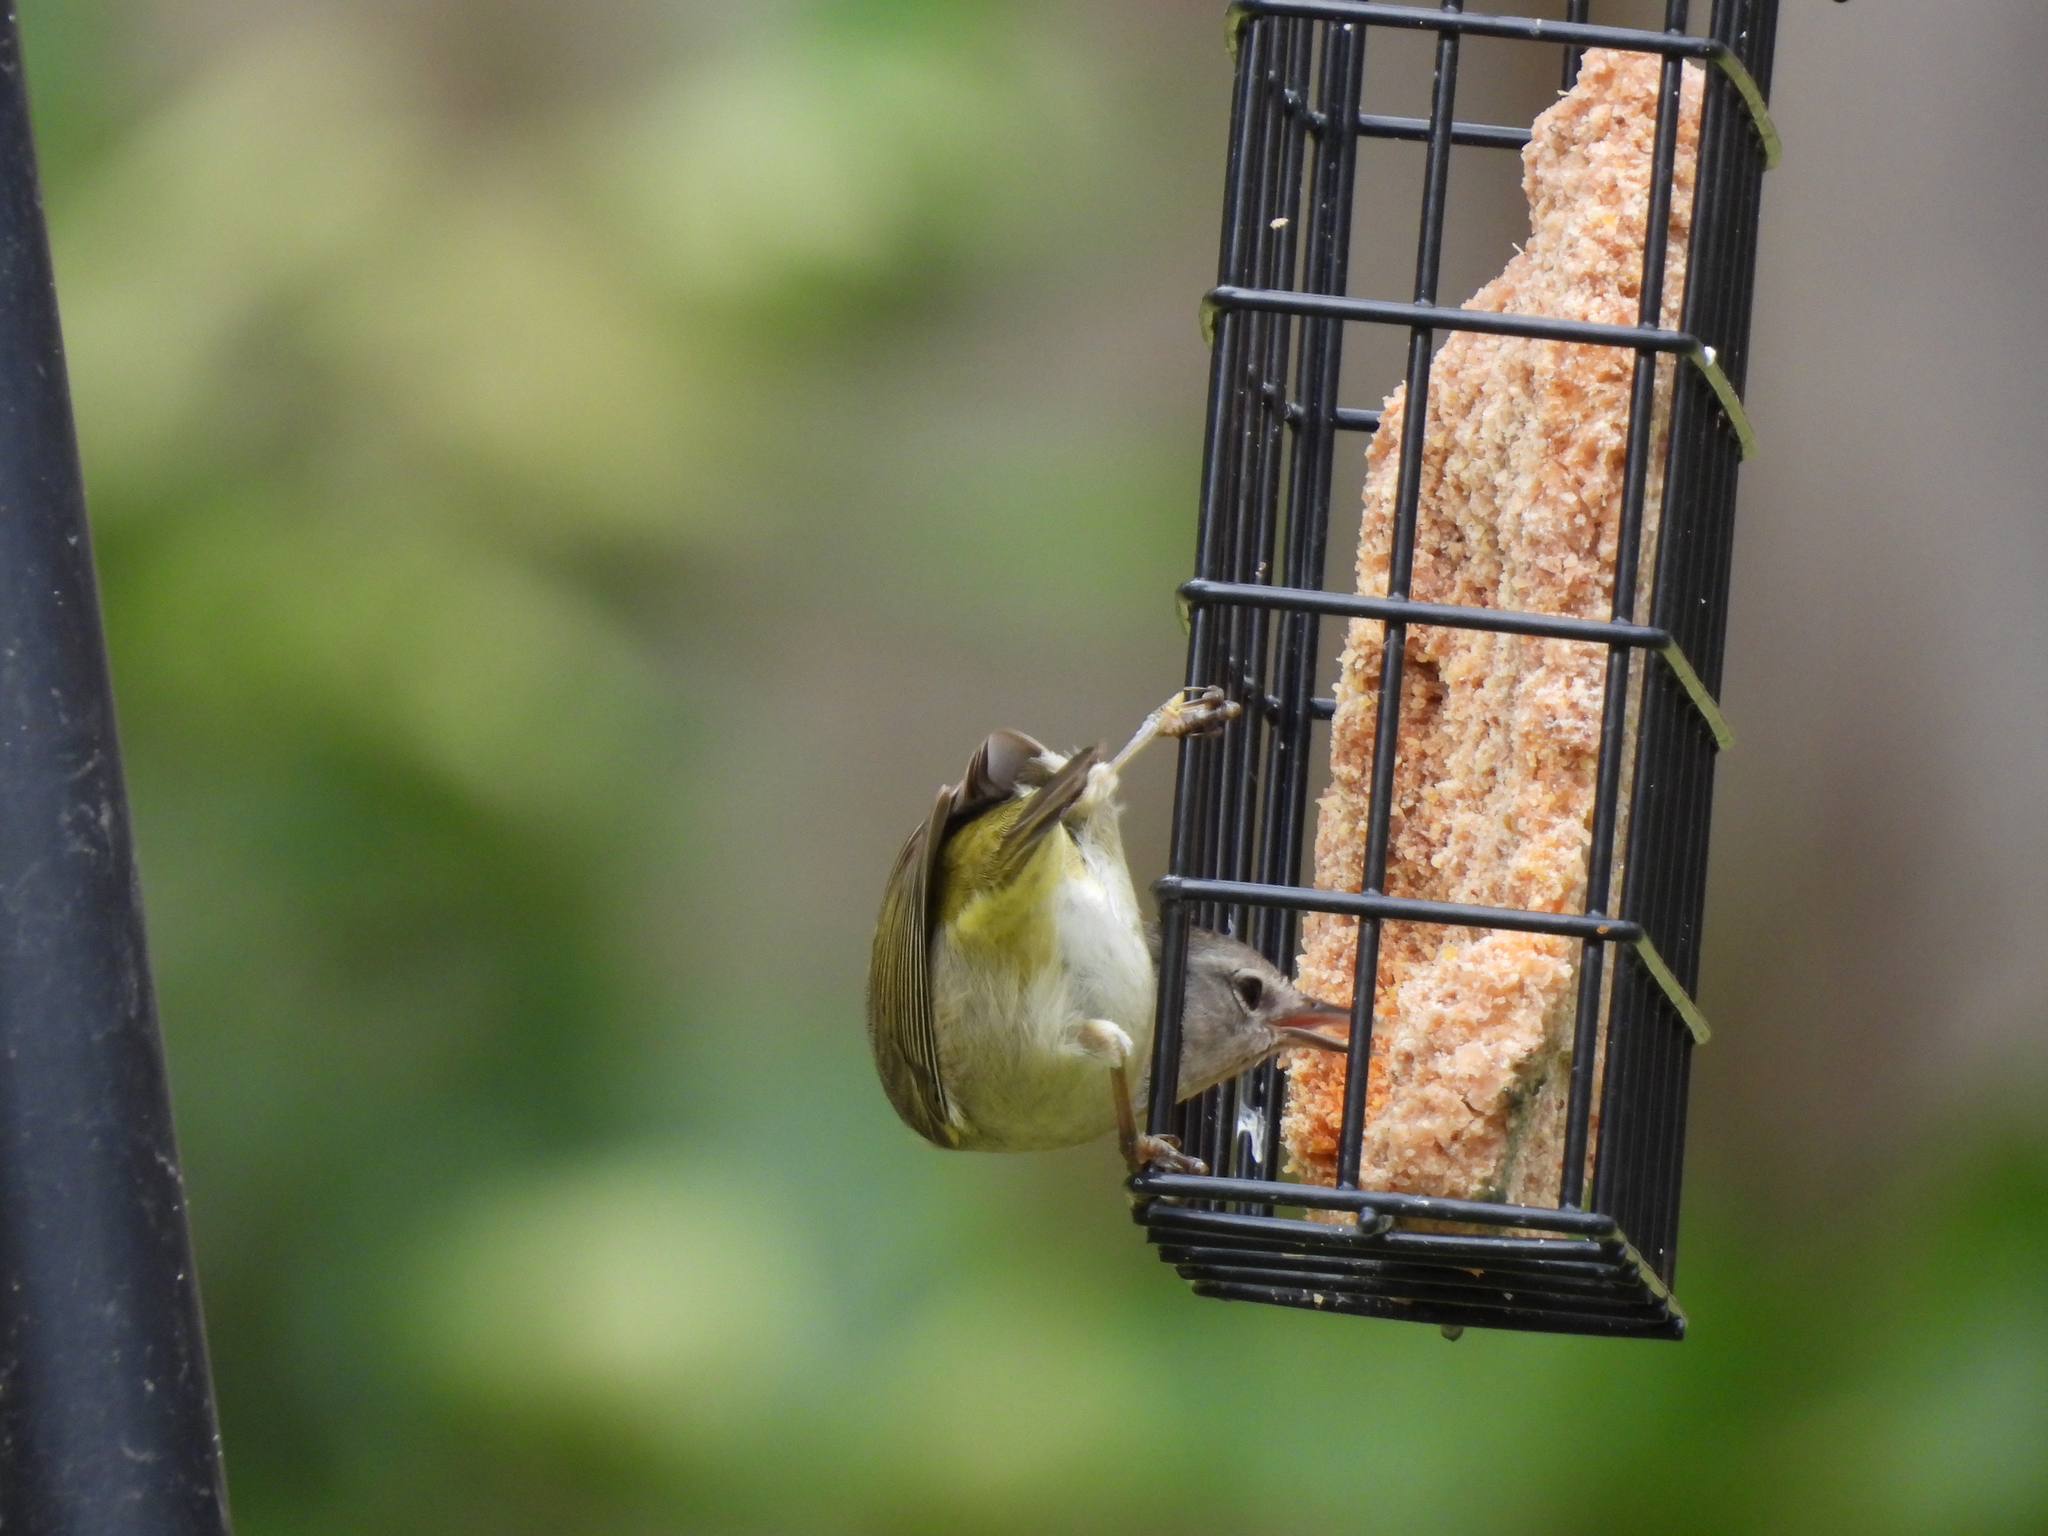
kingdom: Animalia
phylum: Chordata
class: Aves
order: Passeriformes
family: Parulidae
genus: Leiothlypis
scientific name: Leiothlypis celata
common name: Orange-crowned warbler
